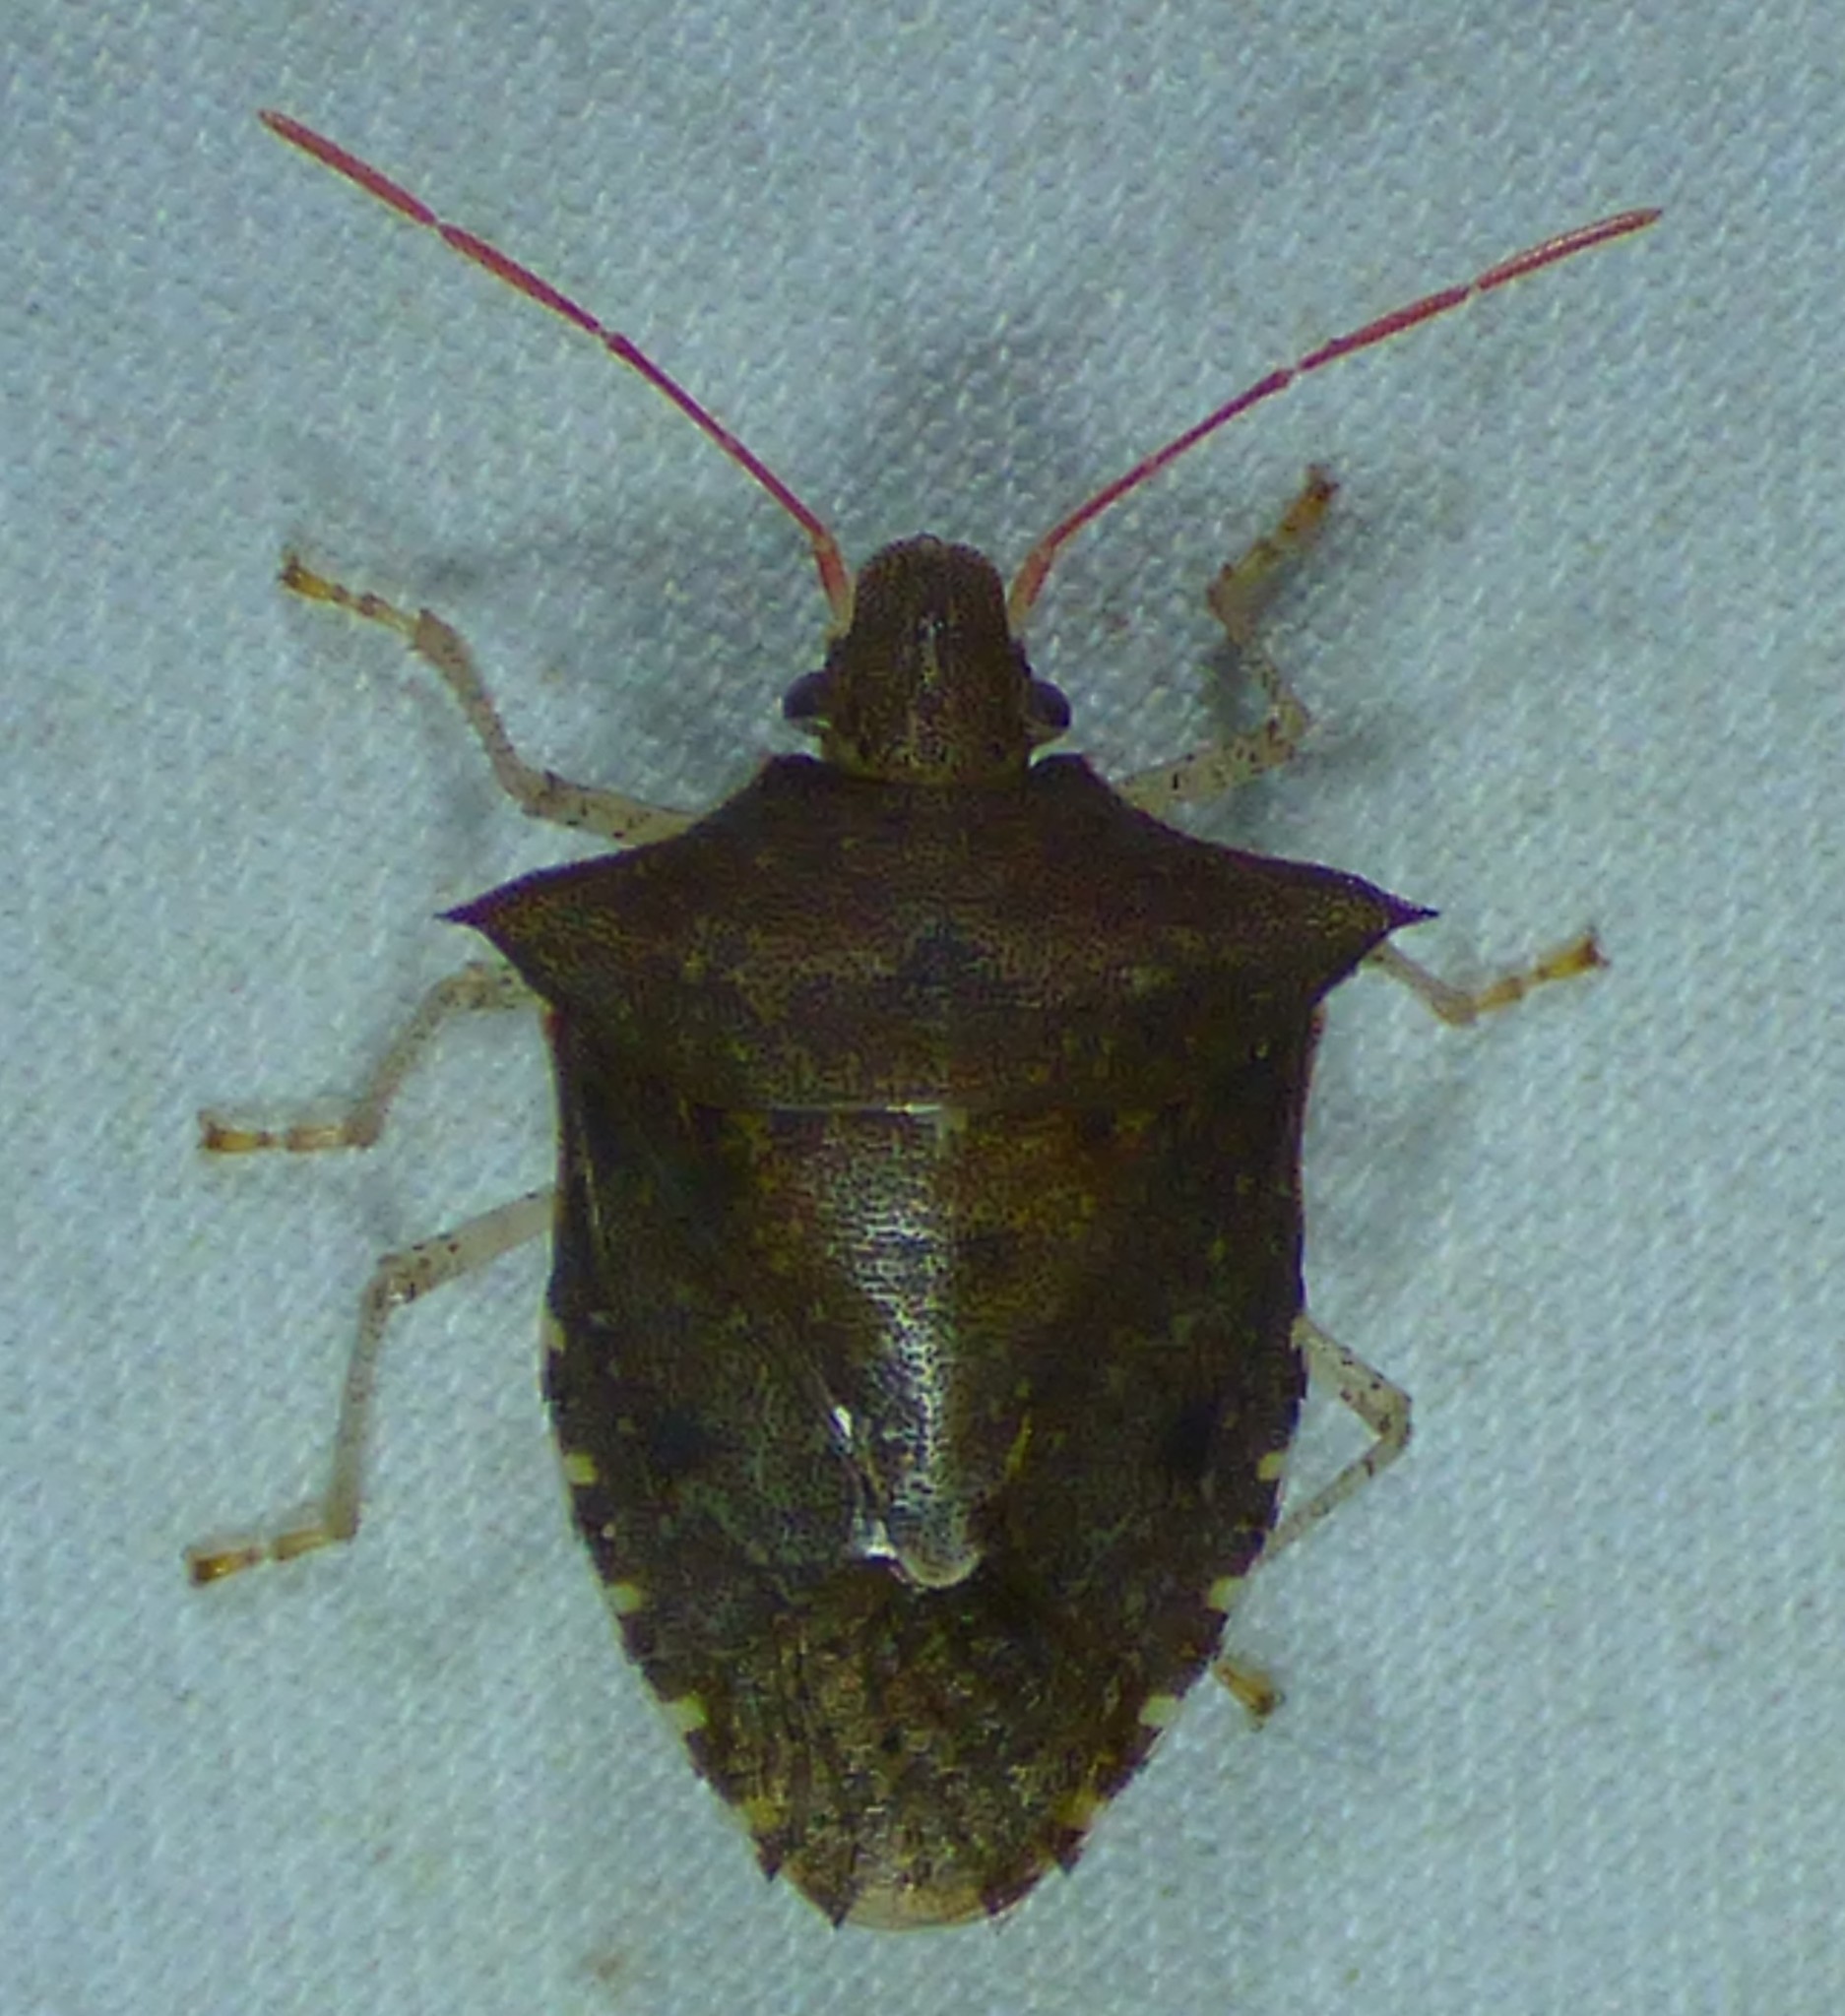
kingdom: Animalia
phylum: Arthropoda
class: Insecta
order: Hemiptera
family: Pentatomidae
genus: Euschistus
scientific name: Euschistus tristigmus
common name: Dusky stink bug
